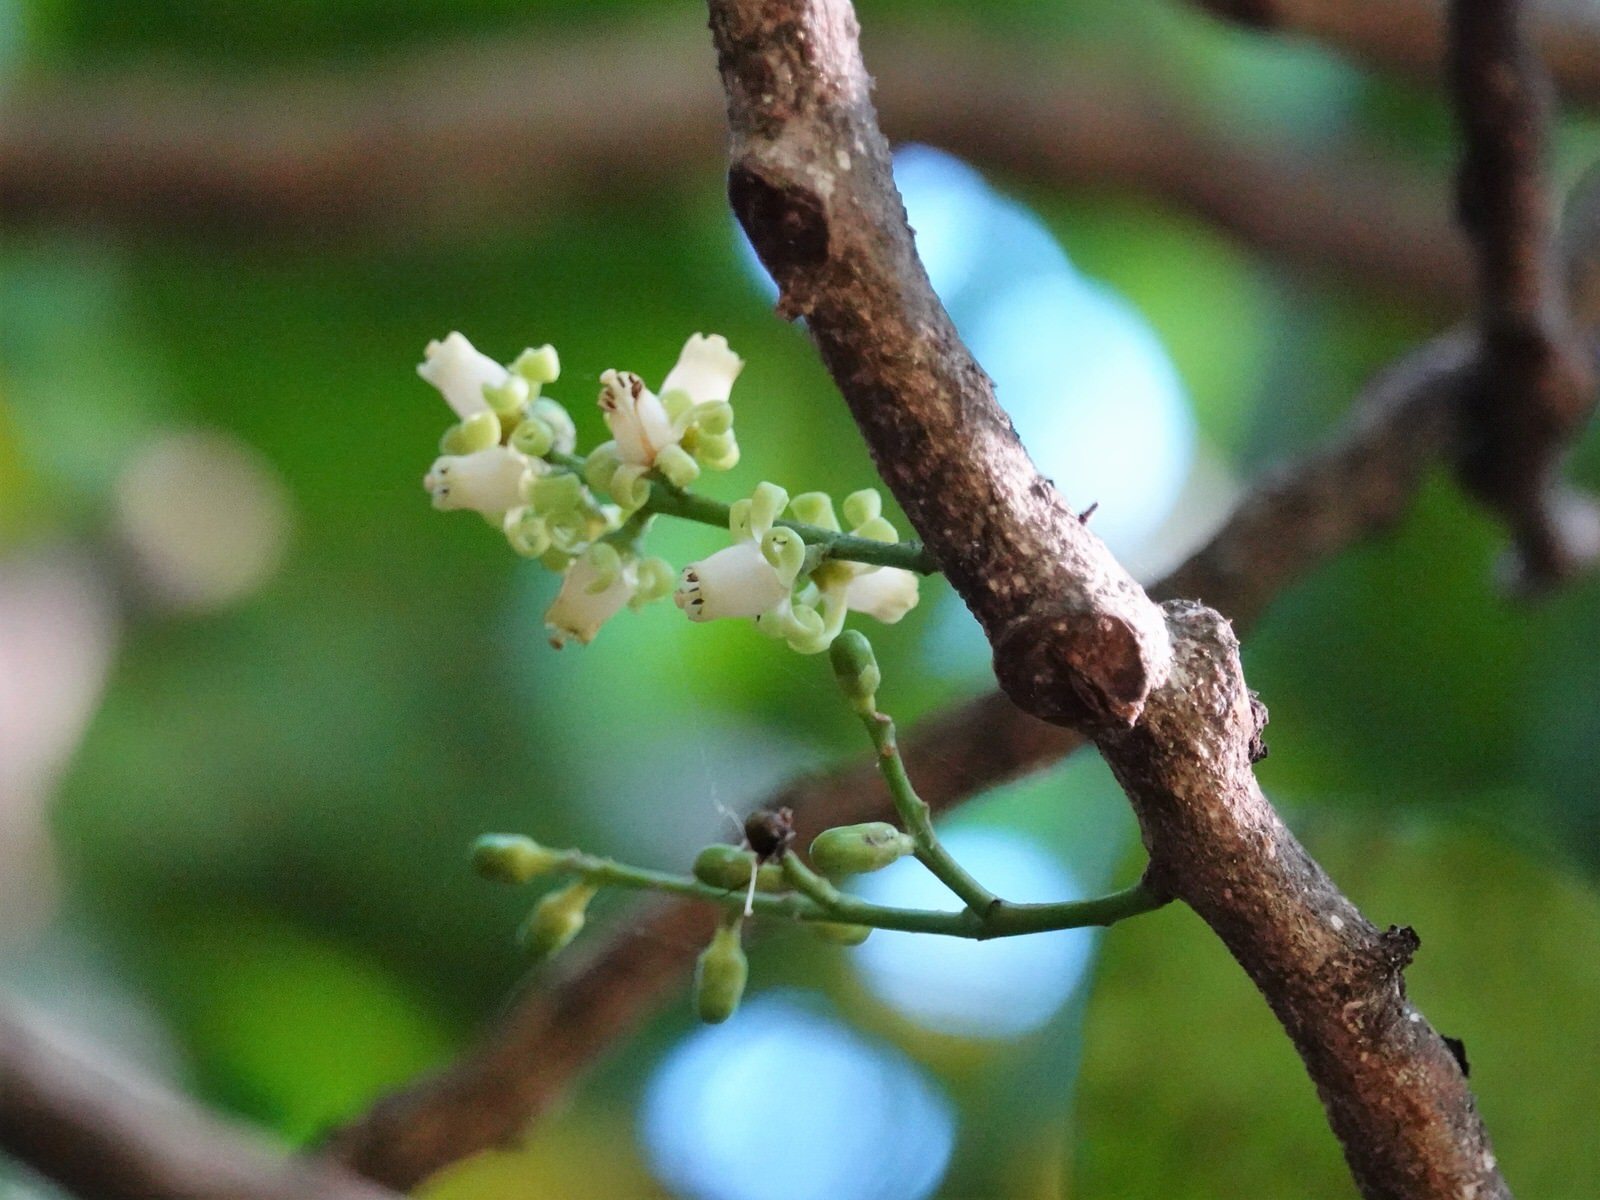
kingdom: Plantae
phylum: Tracheophyta
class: Magnoliopsida
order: Sapindales
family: Meliaceae
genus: Didymocheton
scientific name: Didymocheton spectabilis
